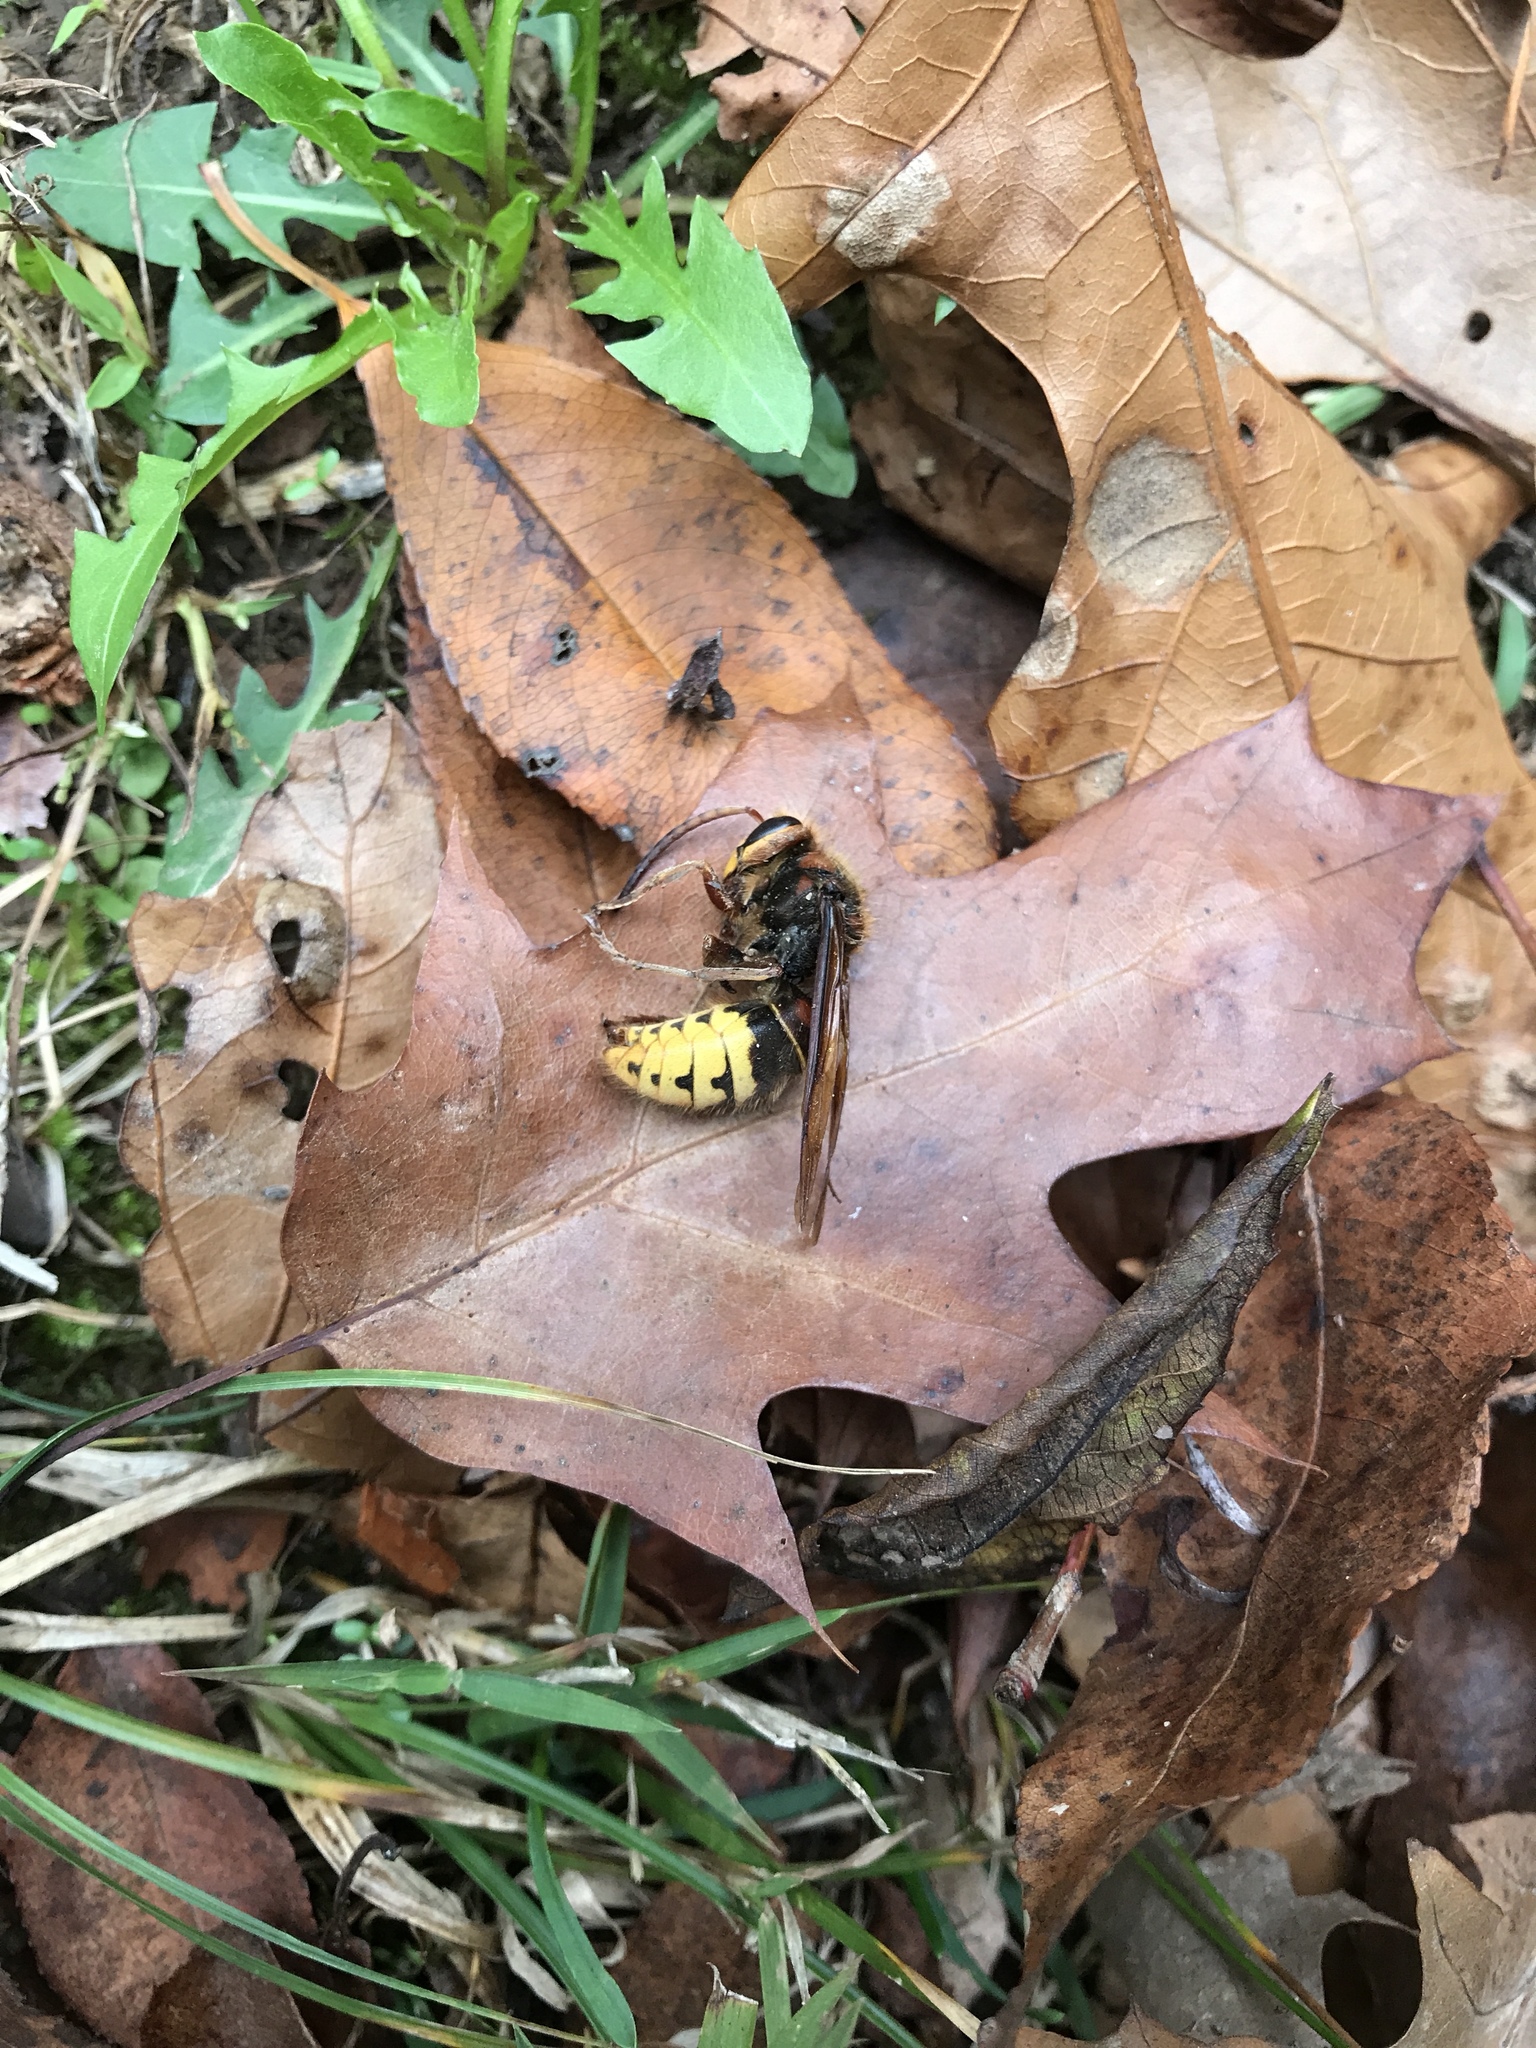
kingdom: Animalia
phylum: Arthropoda
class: Insecta
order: Hymenoptera
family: Vespidae
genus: Vespa
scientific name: Vespa crabro
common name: Hornet
